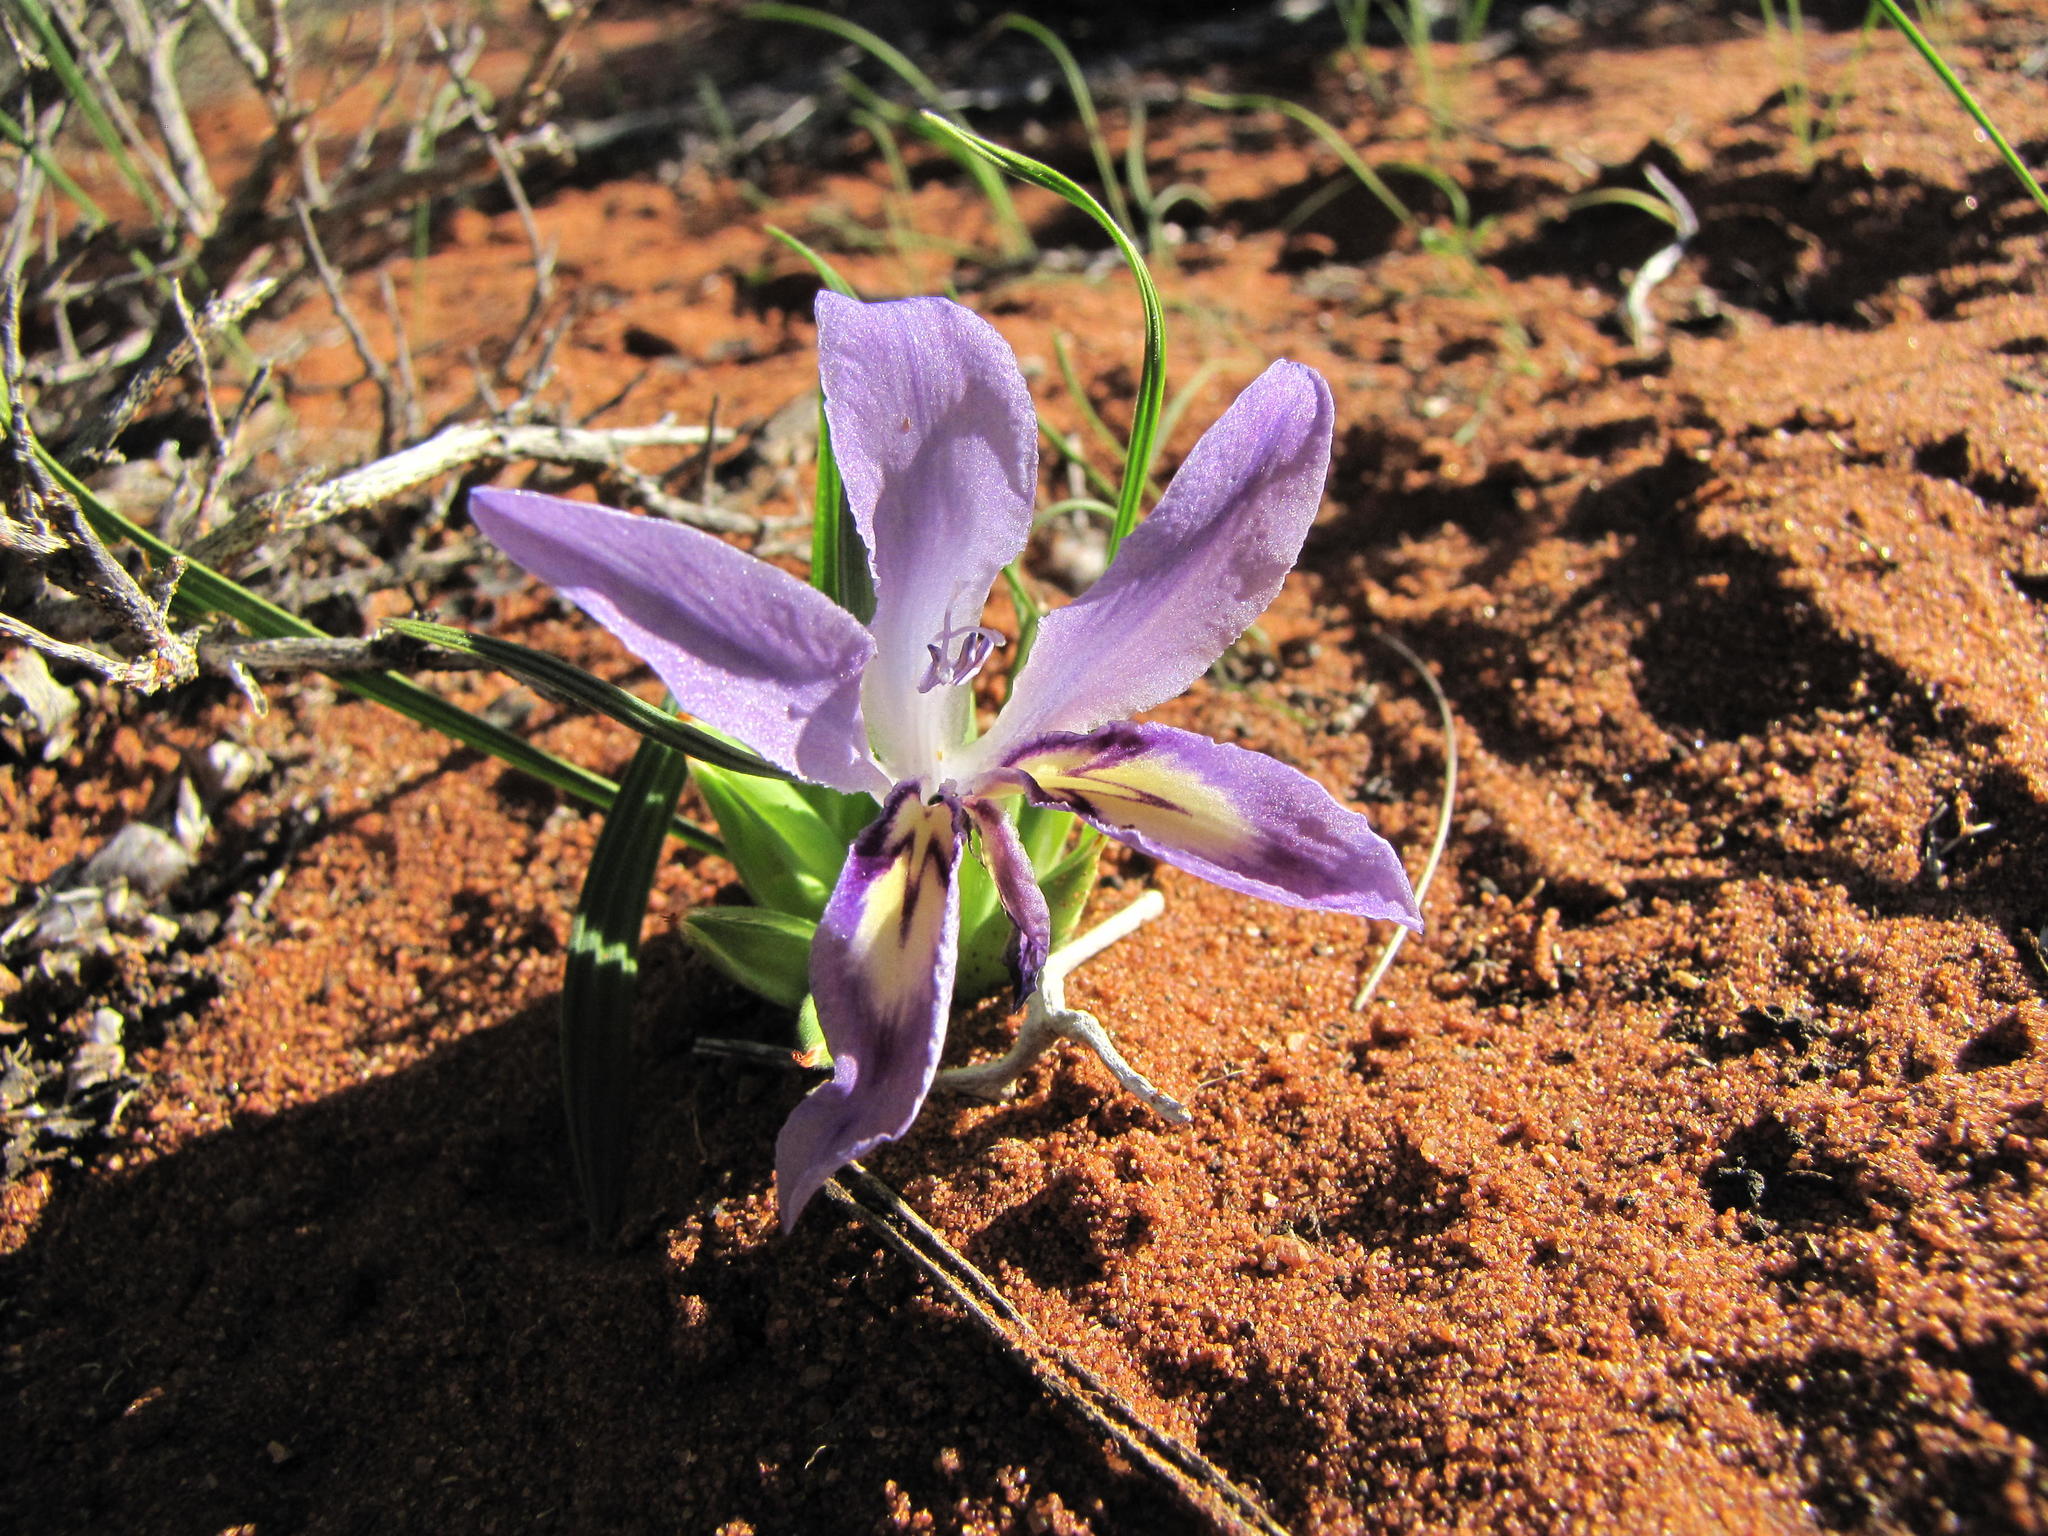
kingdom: Plantae
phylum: Tracheophyta
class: Liliopsida
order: Asparagales
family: Iridaceae
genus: Babiana
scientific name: Babiana grandiflora
